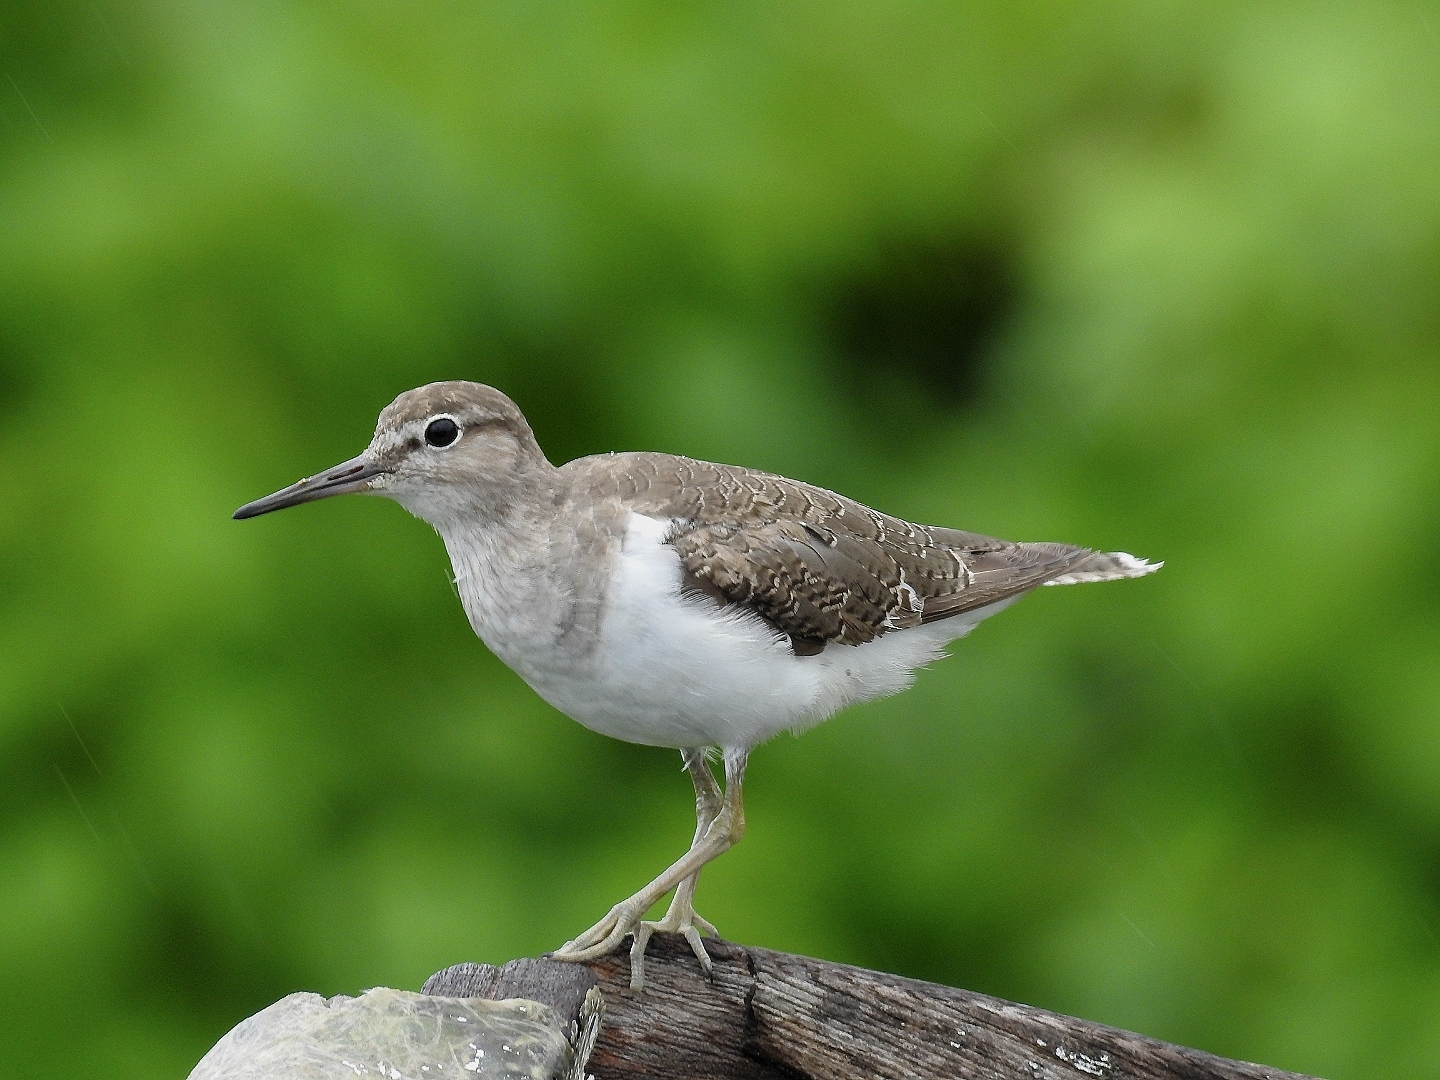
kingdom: Animalia
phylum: Chordata
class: Aves
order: Charadriiformes
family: Scolopacidae
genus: Actitis
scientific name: Actitis hypoleucos
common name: Common sandpiper
